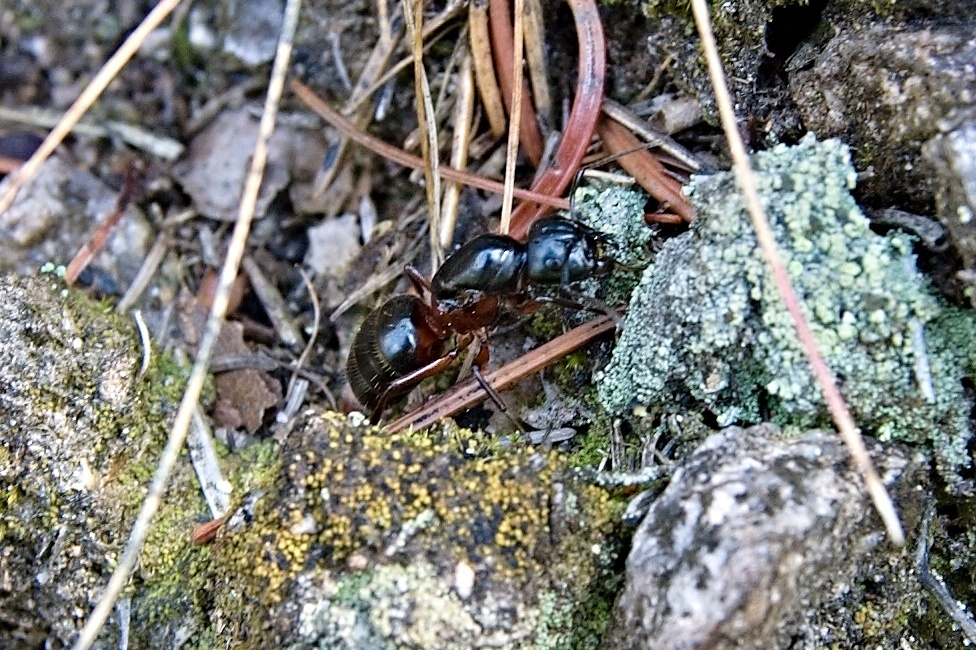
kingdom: Animalia
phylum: Arthropoda
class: Insecta
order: Hymenoptera
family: Formicidae
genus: Camponotus
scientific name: Camponotus ligniperdus
